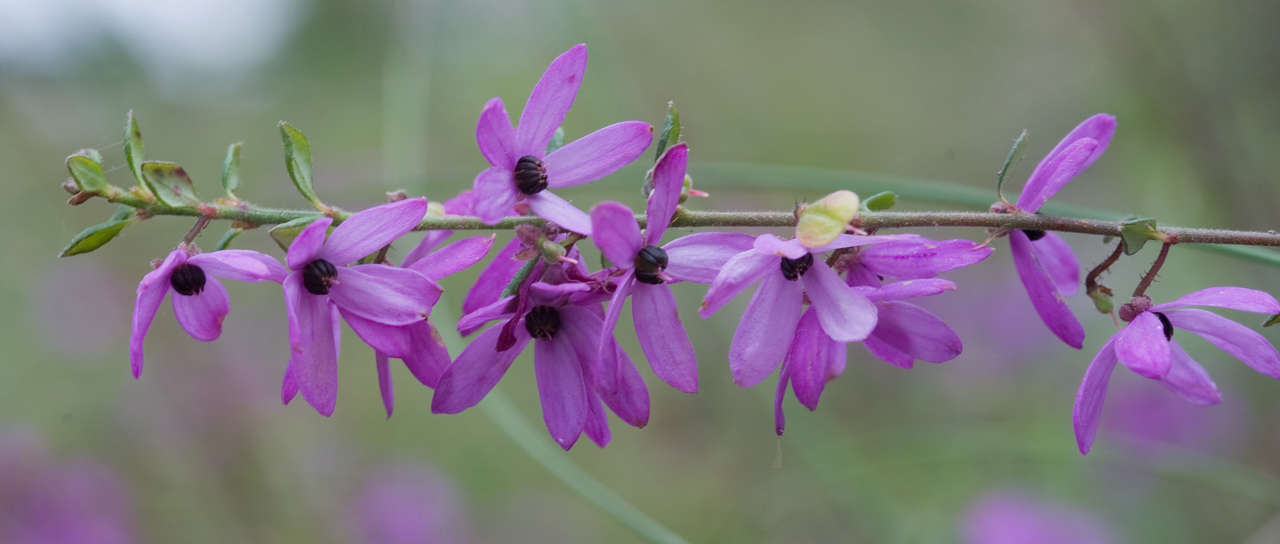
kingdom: Plantae
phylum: Tracheophyta
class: Magnoliopsida
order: Oxalidales
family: Elaeocarpaceae
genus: Tetratheca
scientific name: Tetratheca ciliata
